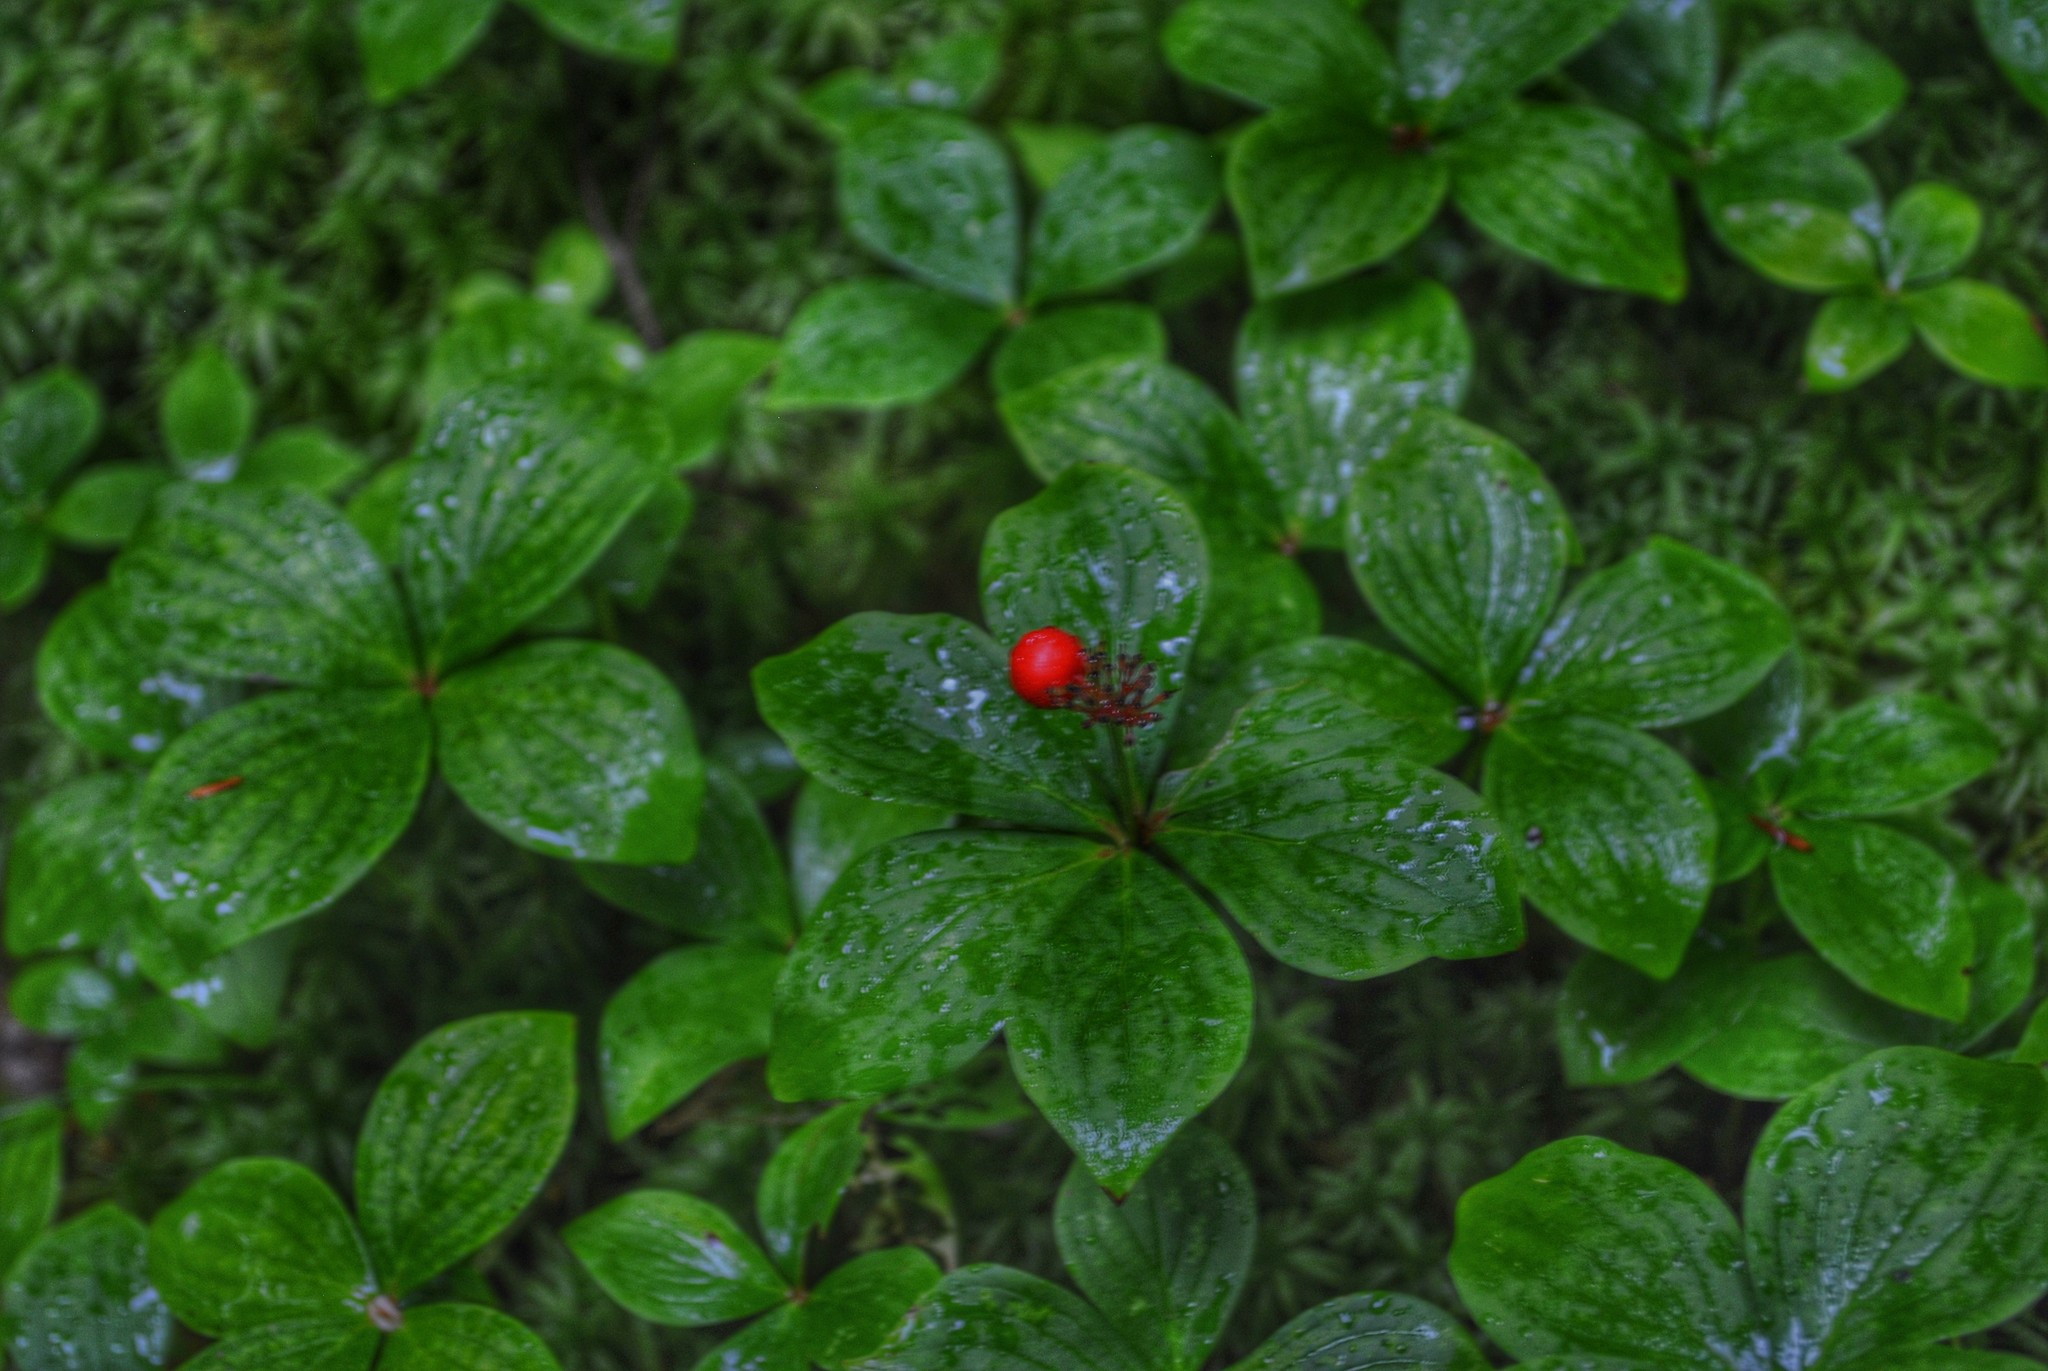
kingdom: Plantae
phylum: Tracheophyta
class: Magnoliopsida
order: Cornales
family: Cornaceae
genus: Cornus
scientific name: Cornus canadensis
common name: Creeping dogwood
